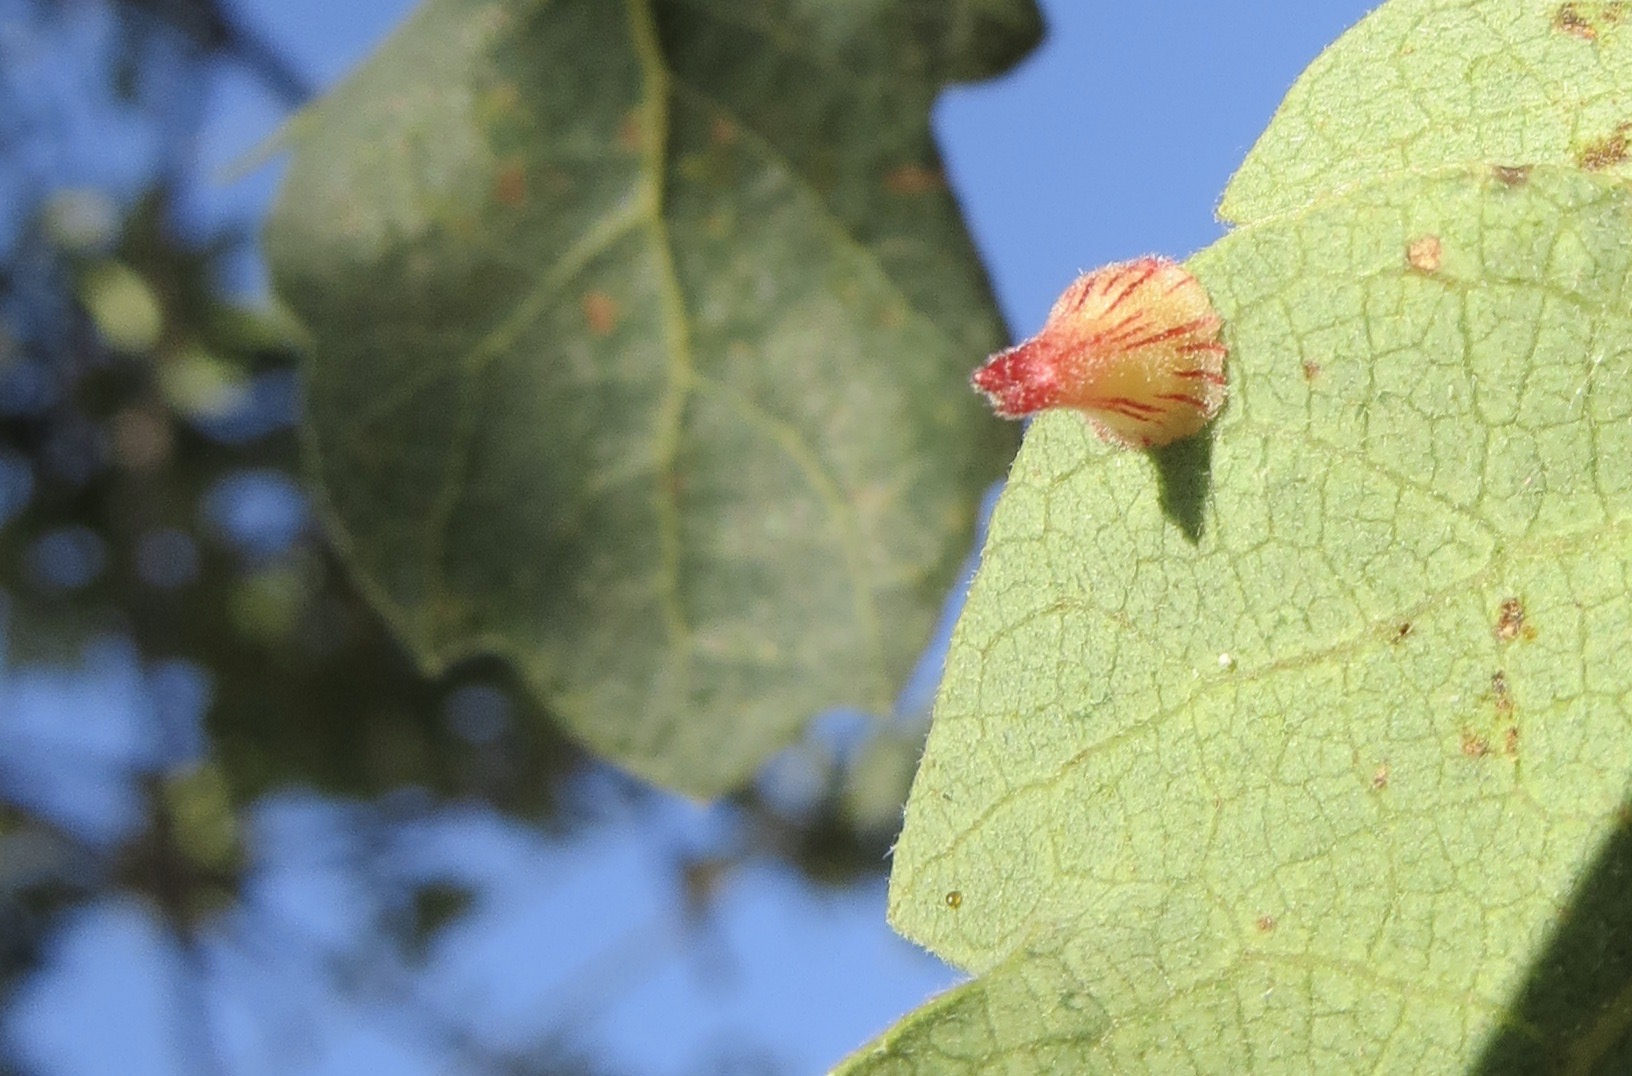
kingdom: Animalia
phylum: Arthropoda
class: Insecta
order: Hymenoptera
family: Cynipidae
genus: Andricus
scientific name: Andricus
